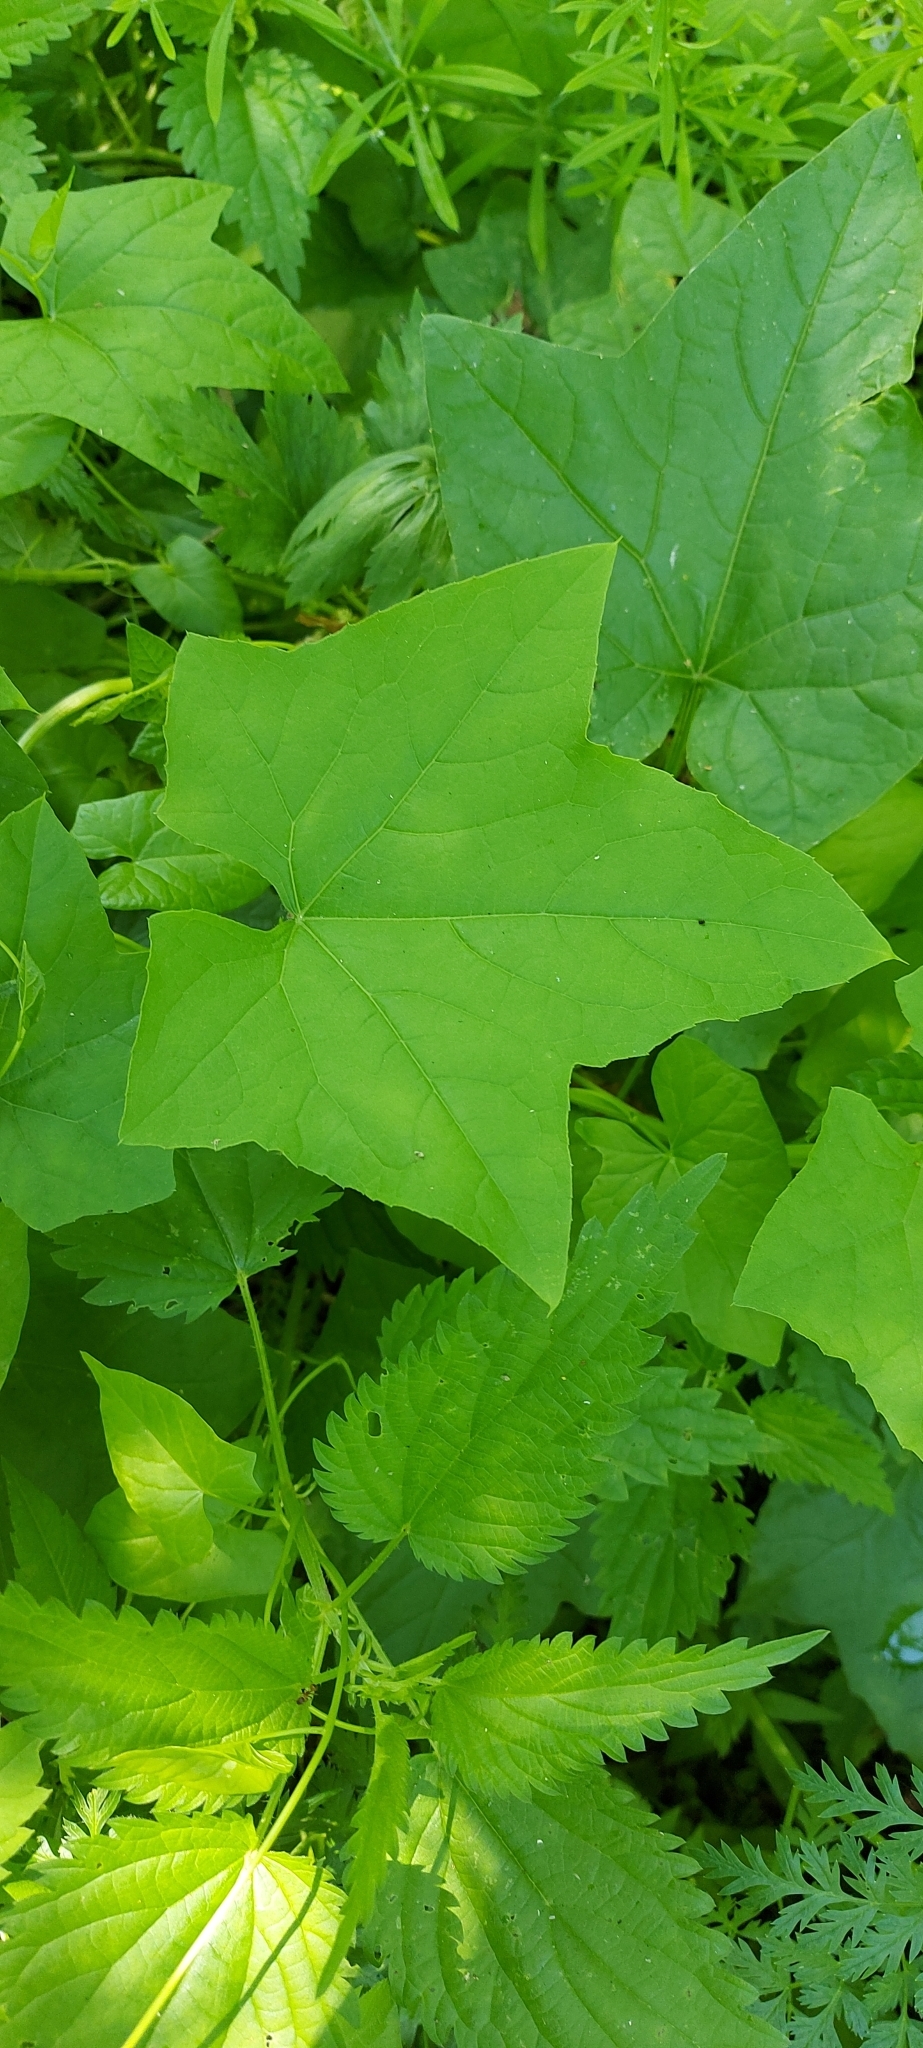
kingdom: Plantae
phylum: Tracheophyta
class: Magnoliopsida
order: Cucurbitales
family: Cucurbitaceae
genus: Echinocystis
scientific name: Echinocystis lobata
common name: Wild cucumber
